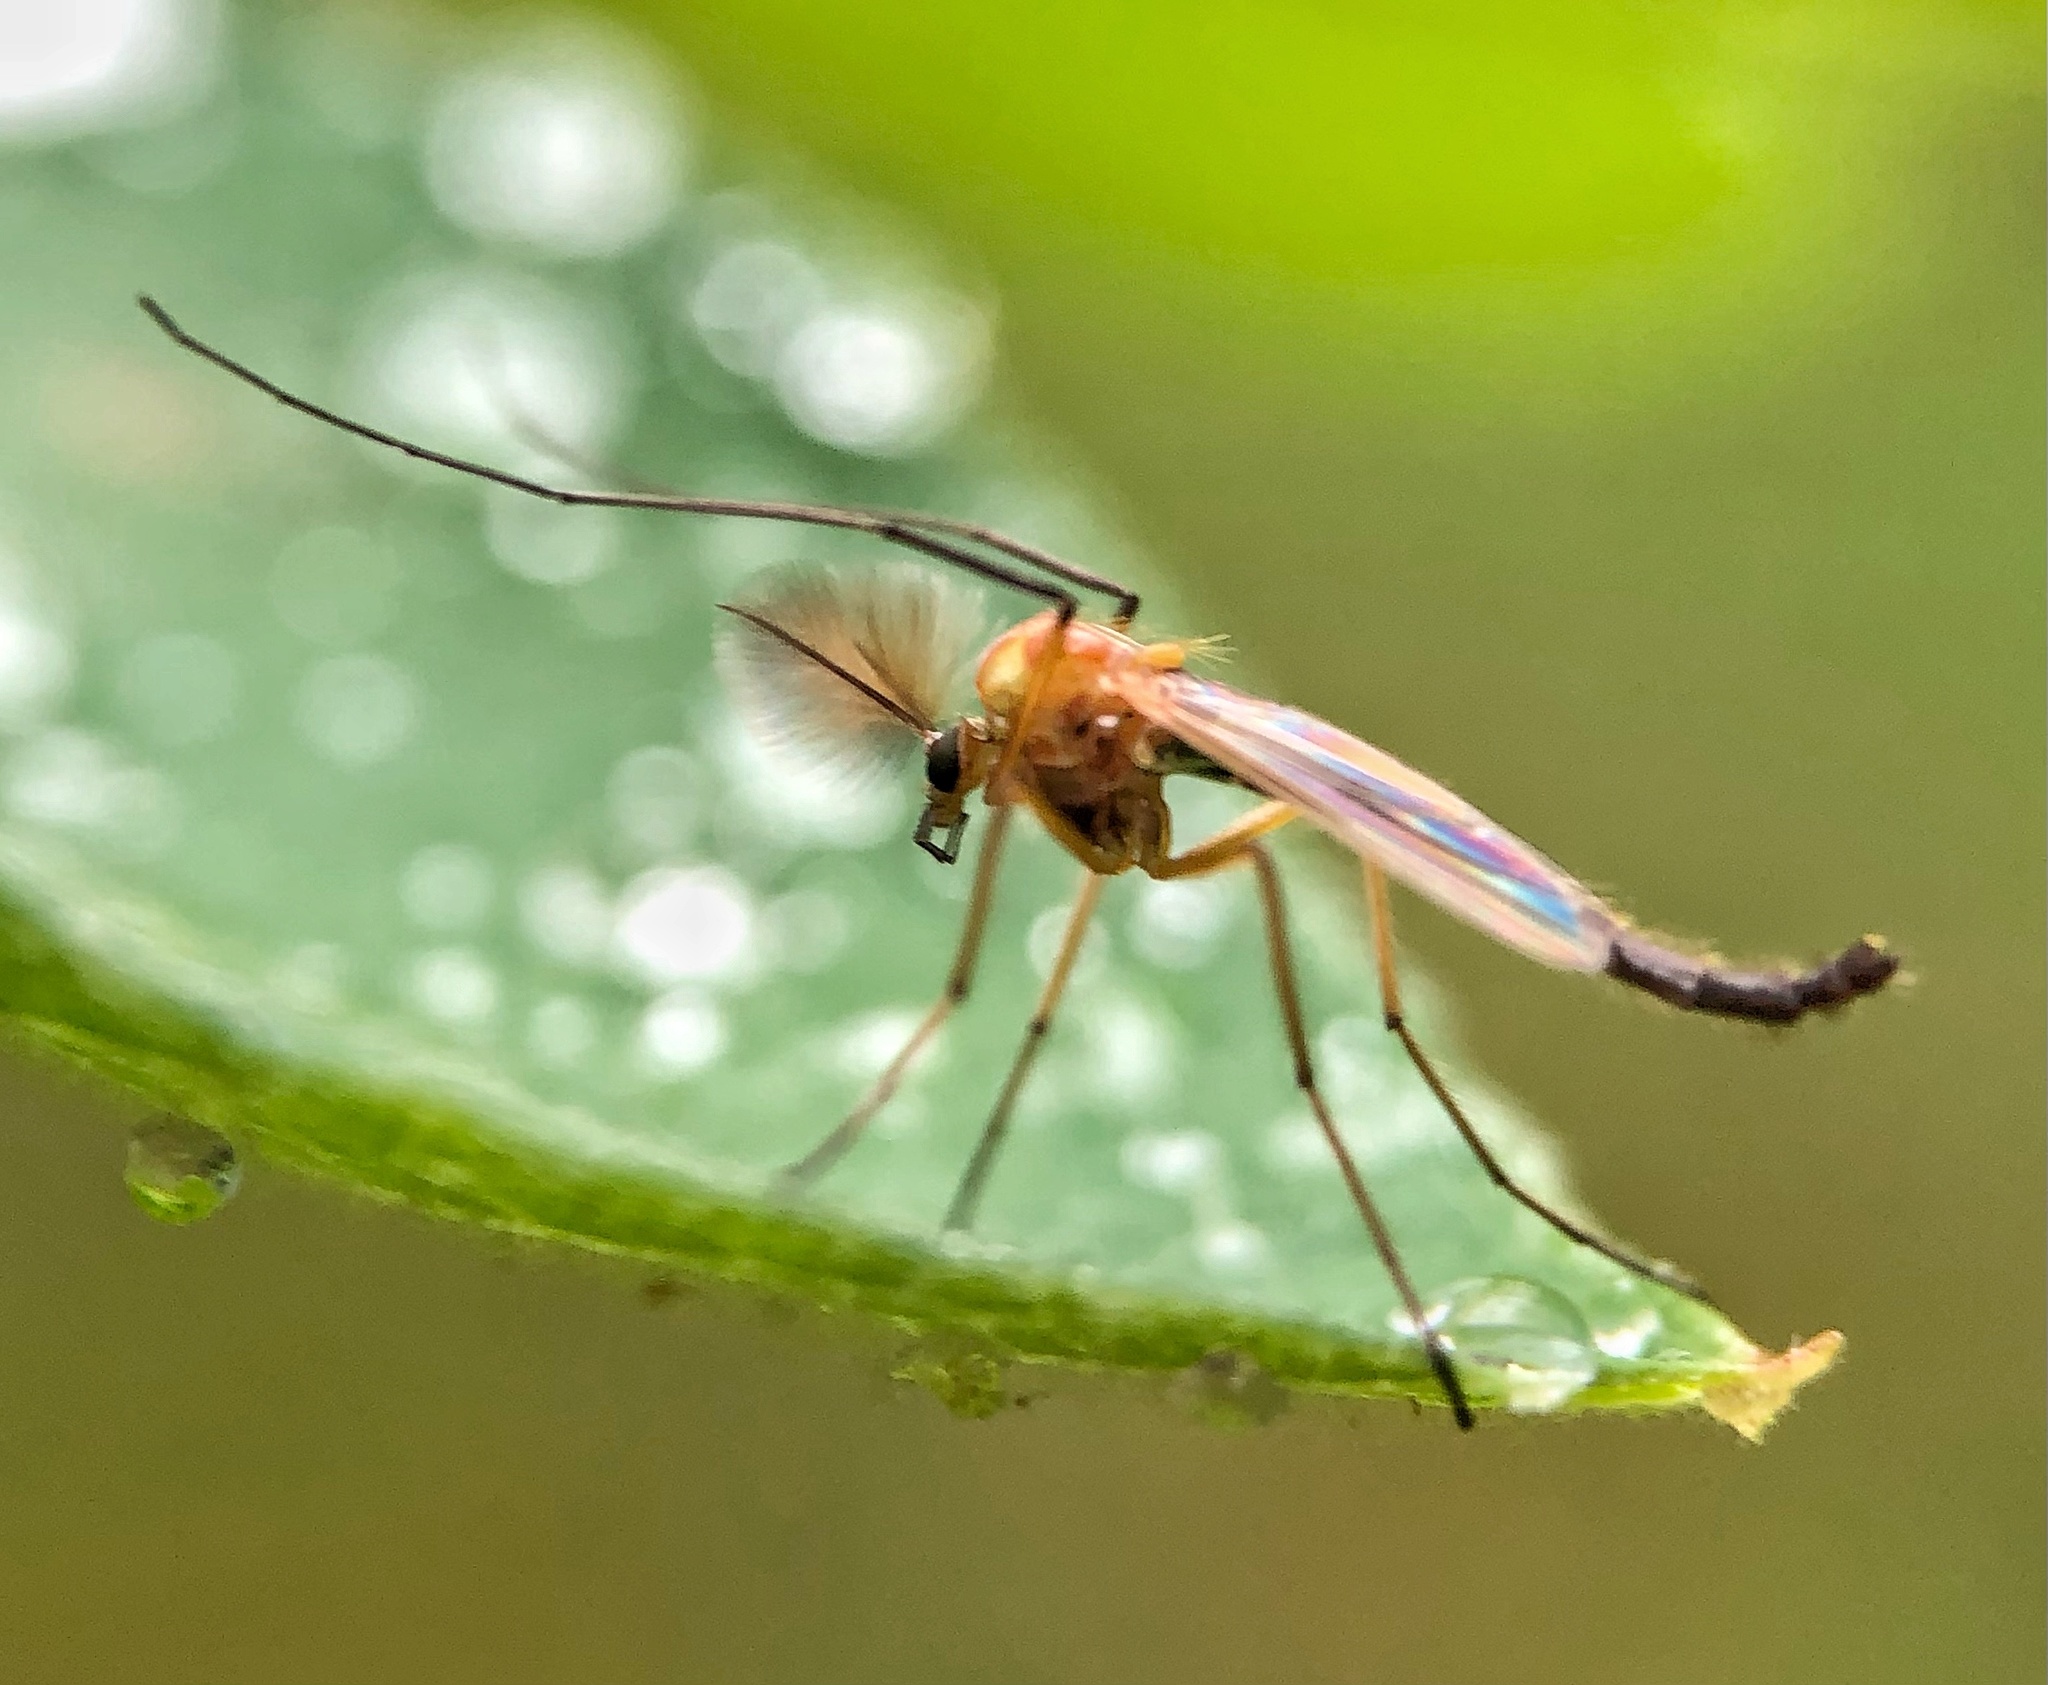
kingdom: Animalia
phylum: Arthropoda
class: Insecta
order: Diptera
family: Chironomidae
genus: Chironomus
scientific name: Chironomus ochreatus
